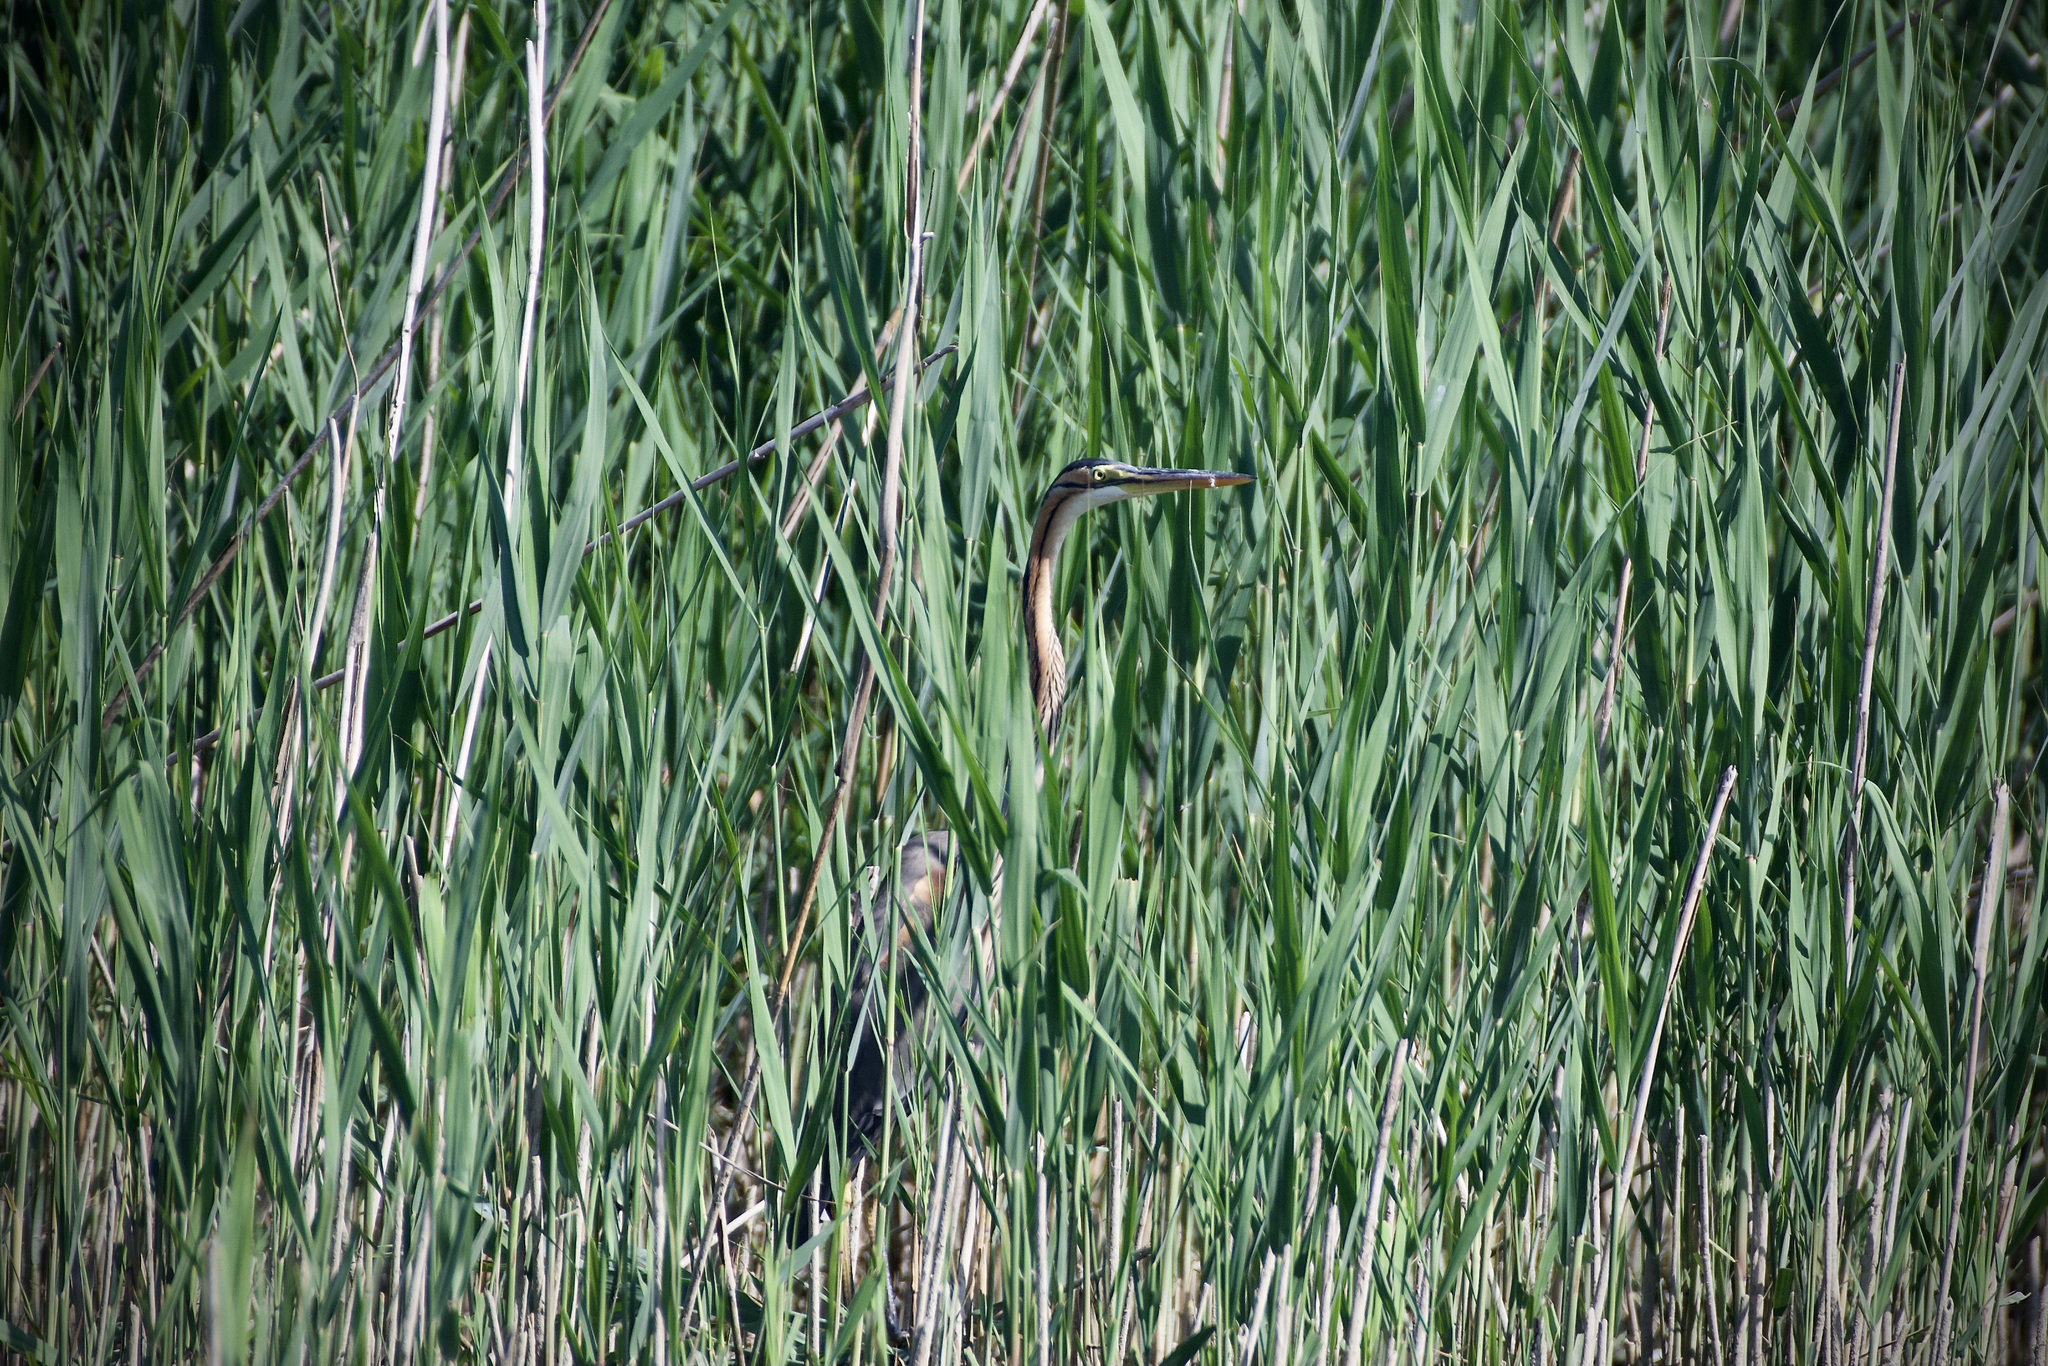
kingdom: Animalia
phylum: Chordata
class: Aves
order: Pelecaniformes
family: Ardeidae
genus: Ardea
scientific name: Ardea purpurea
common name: Purple heron
